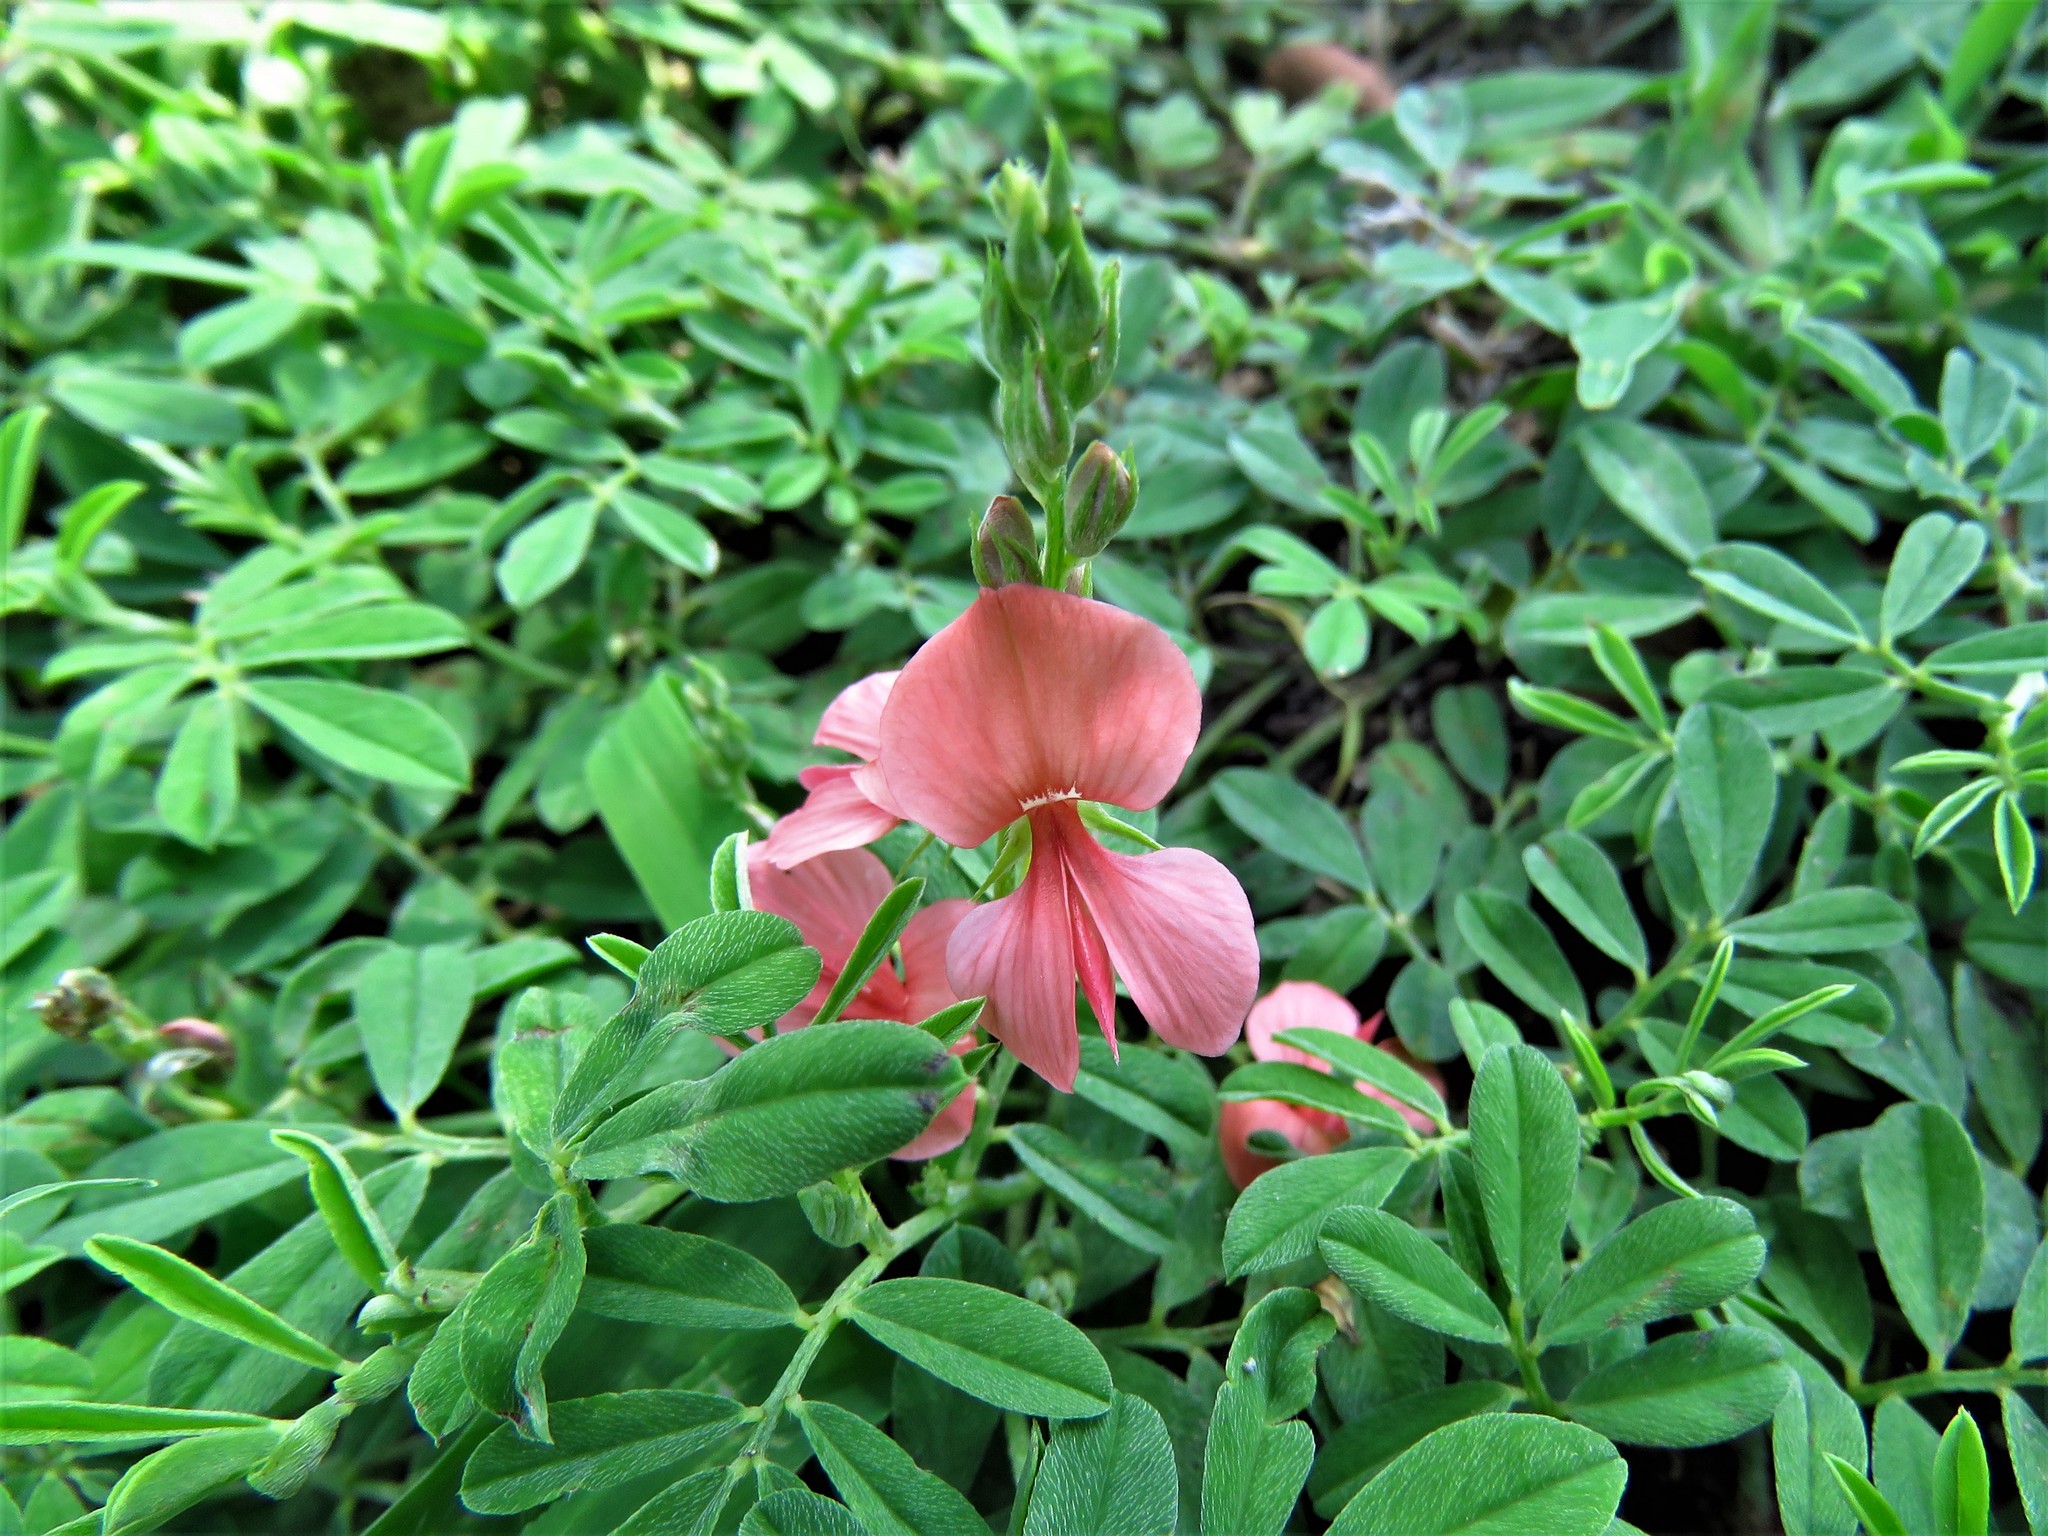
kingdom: Plantae
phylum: Tracheophyta
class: Magnoliopsida
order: Fabales
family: Fabaceae
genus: Indigofera
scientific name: Indigofera miniata
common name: Coast indigo
